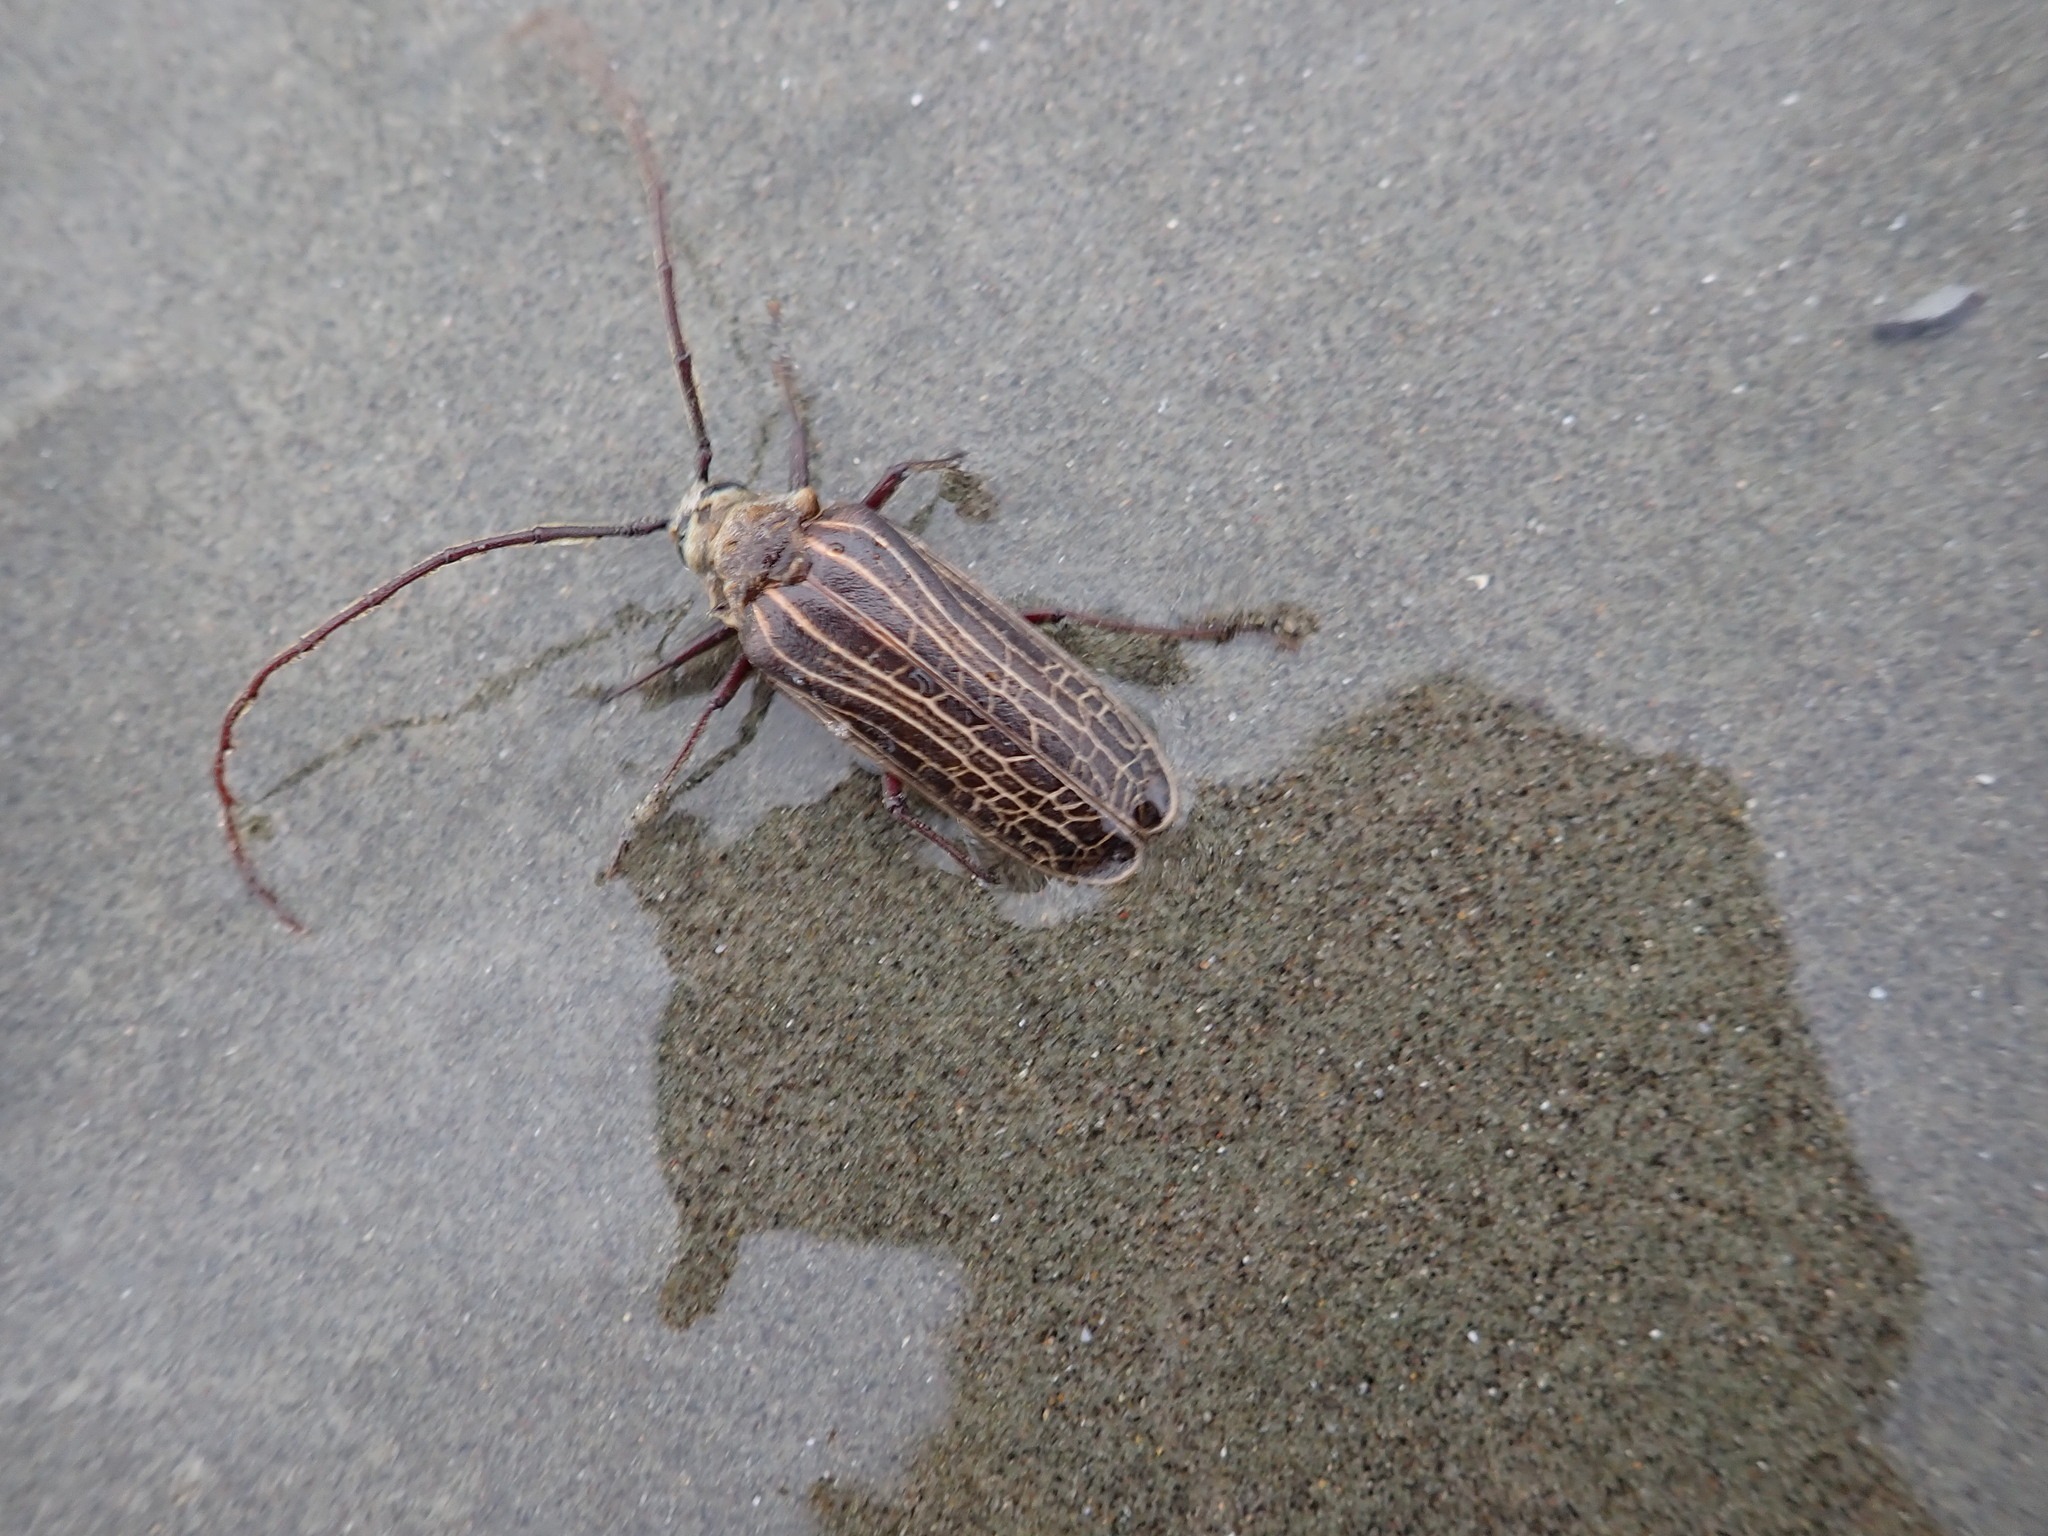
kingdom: Animalia
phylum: Arthropoda
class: Insecta
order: Coleoptera
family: Cerambycidae
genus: Prionoplus
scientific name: Prionoplus reticularis
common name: Huhu beetle
